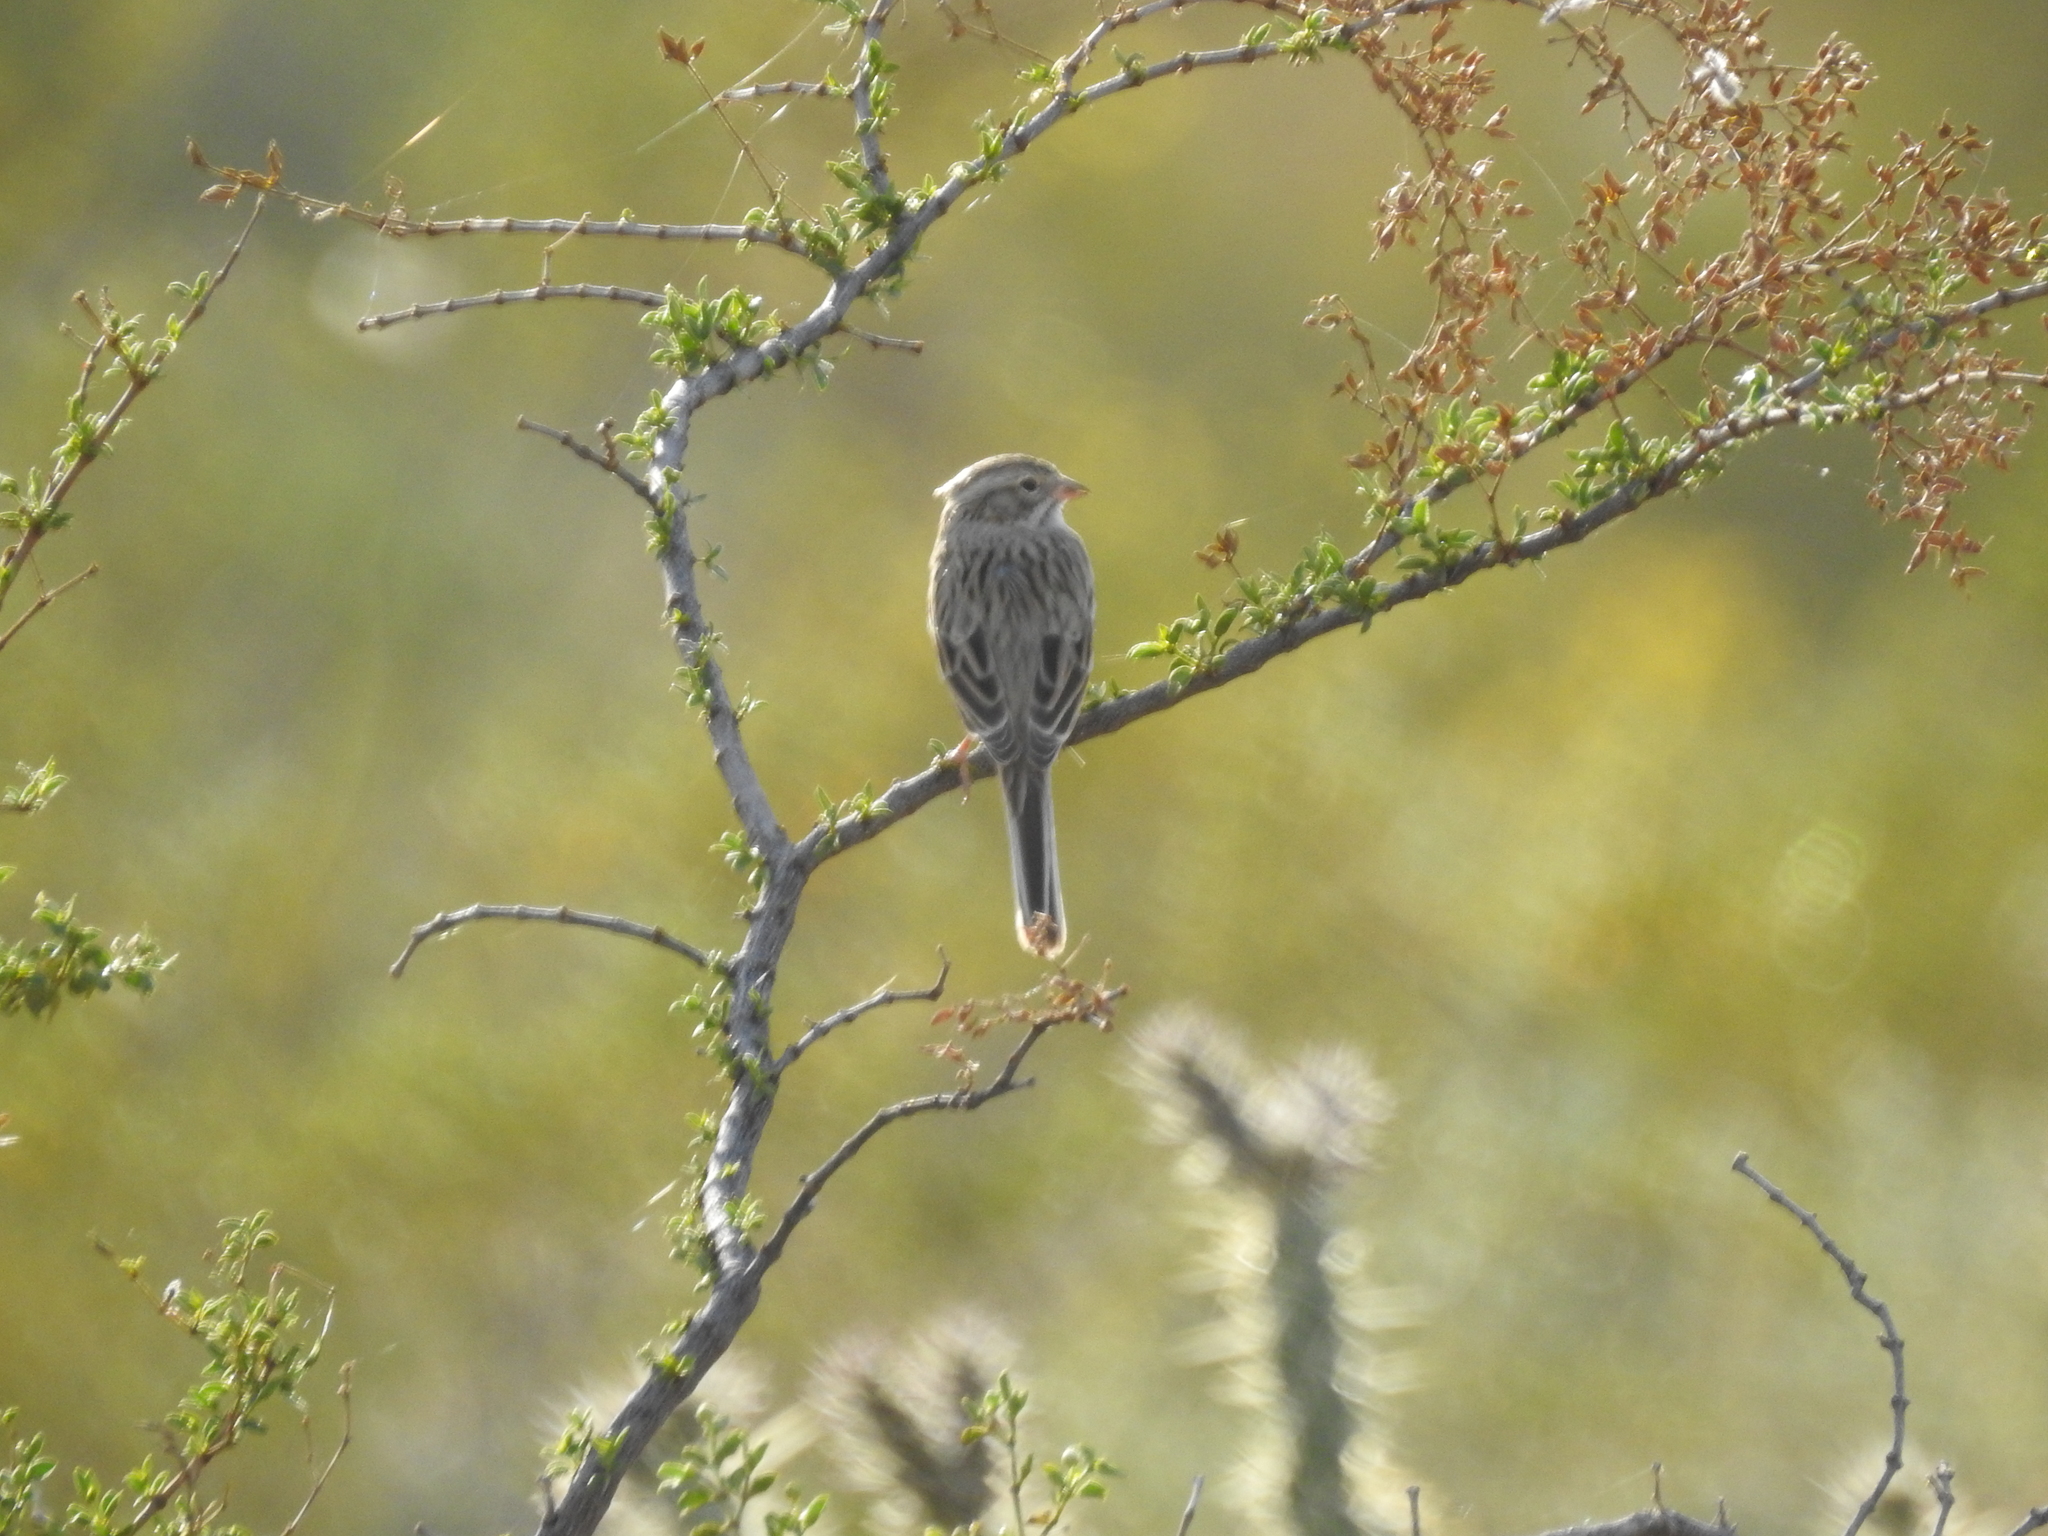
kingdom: Animalia
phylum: Chordata
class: Aves
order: Passeriformes
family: Passerellidae
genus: Spizella
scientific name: Spizella breweri
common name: Brewer's sparrow
